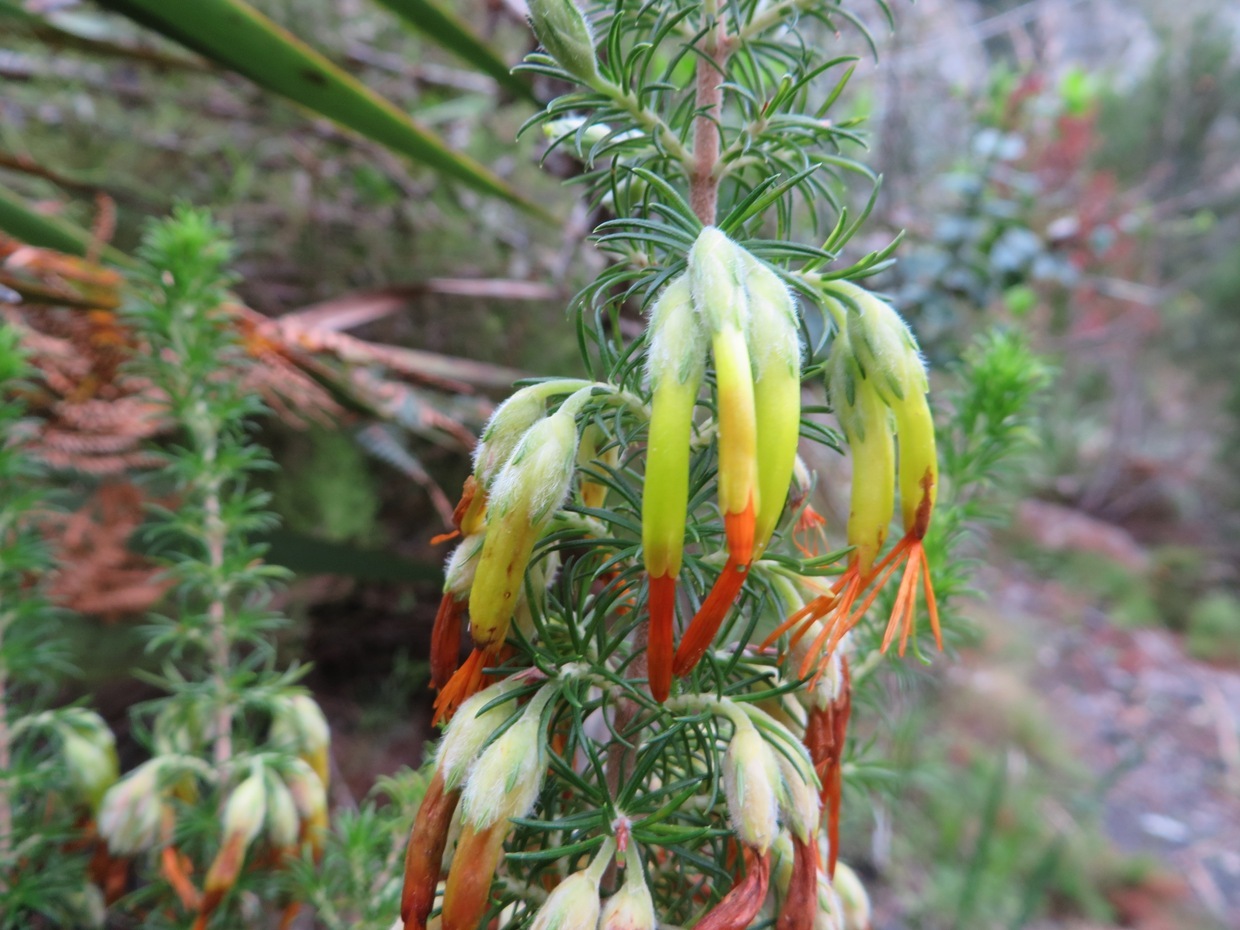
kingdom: Plantae
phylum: Tracheophyta
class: Magnoliopsida
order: Ericales
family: Ericaceae
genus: Erica
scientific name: Erica coccinea
